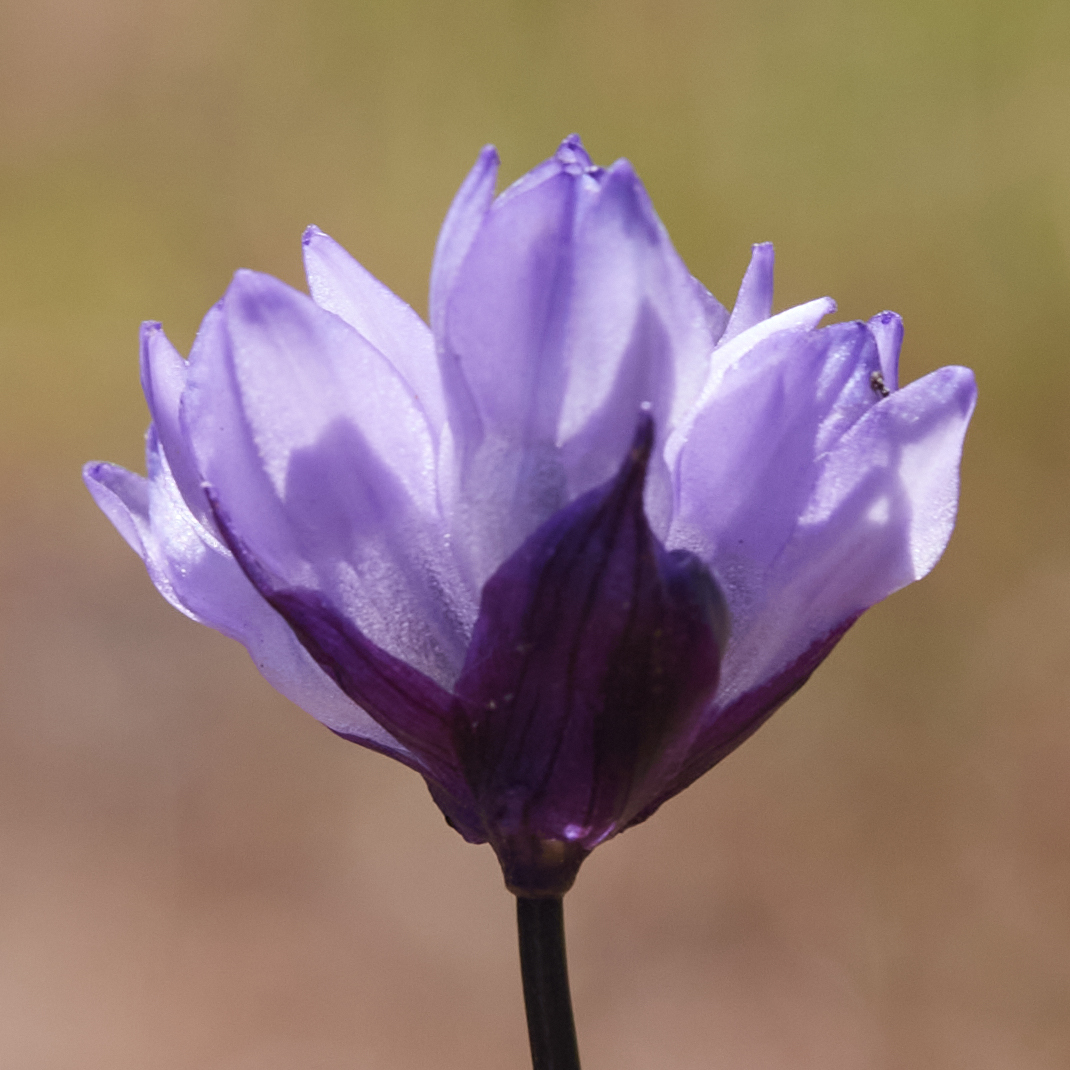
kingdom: Plantae
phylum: Tracheophyta
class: Liliopsida
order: Asparagales
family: Asparagaceae
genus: Dipterostemon
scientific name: Dipterostemon capitatus
